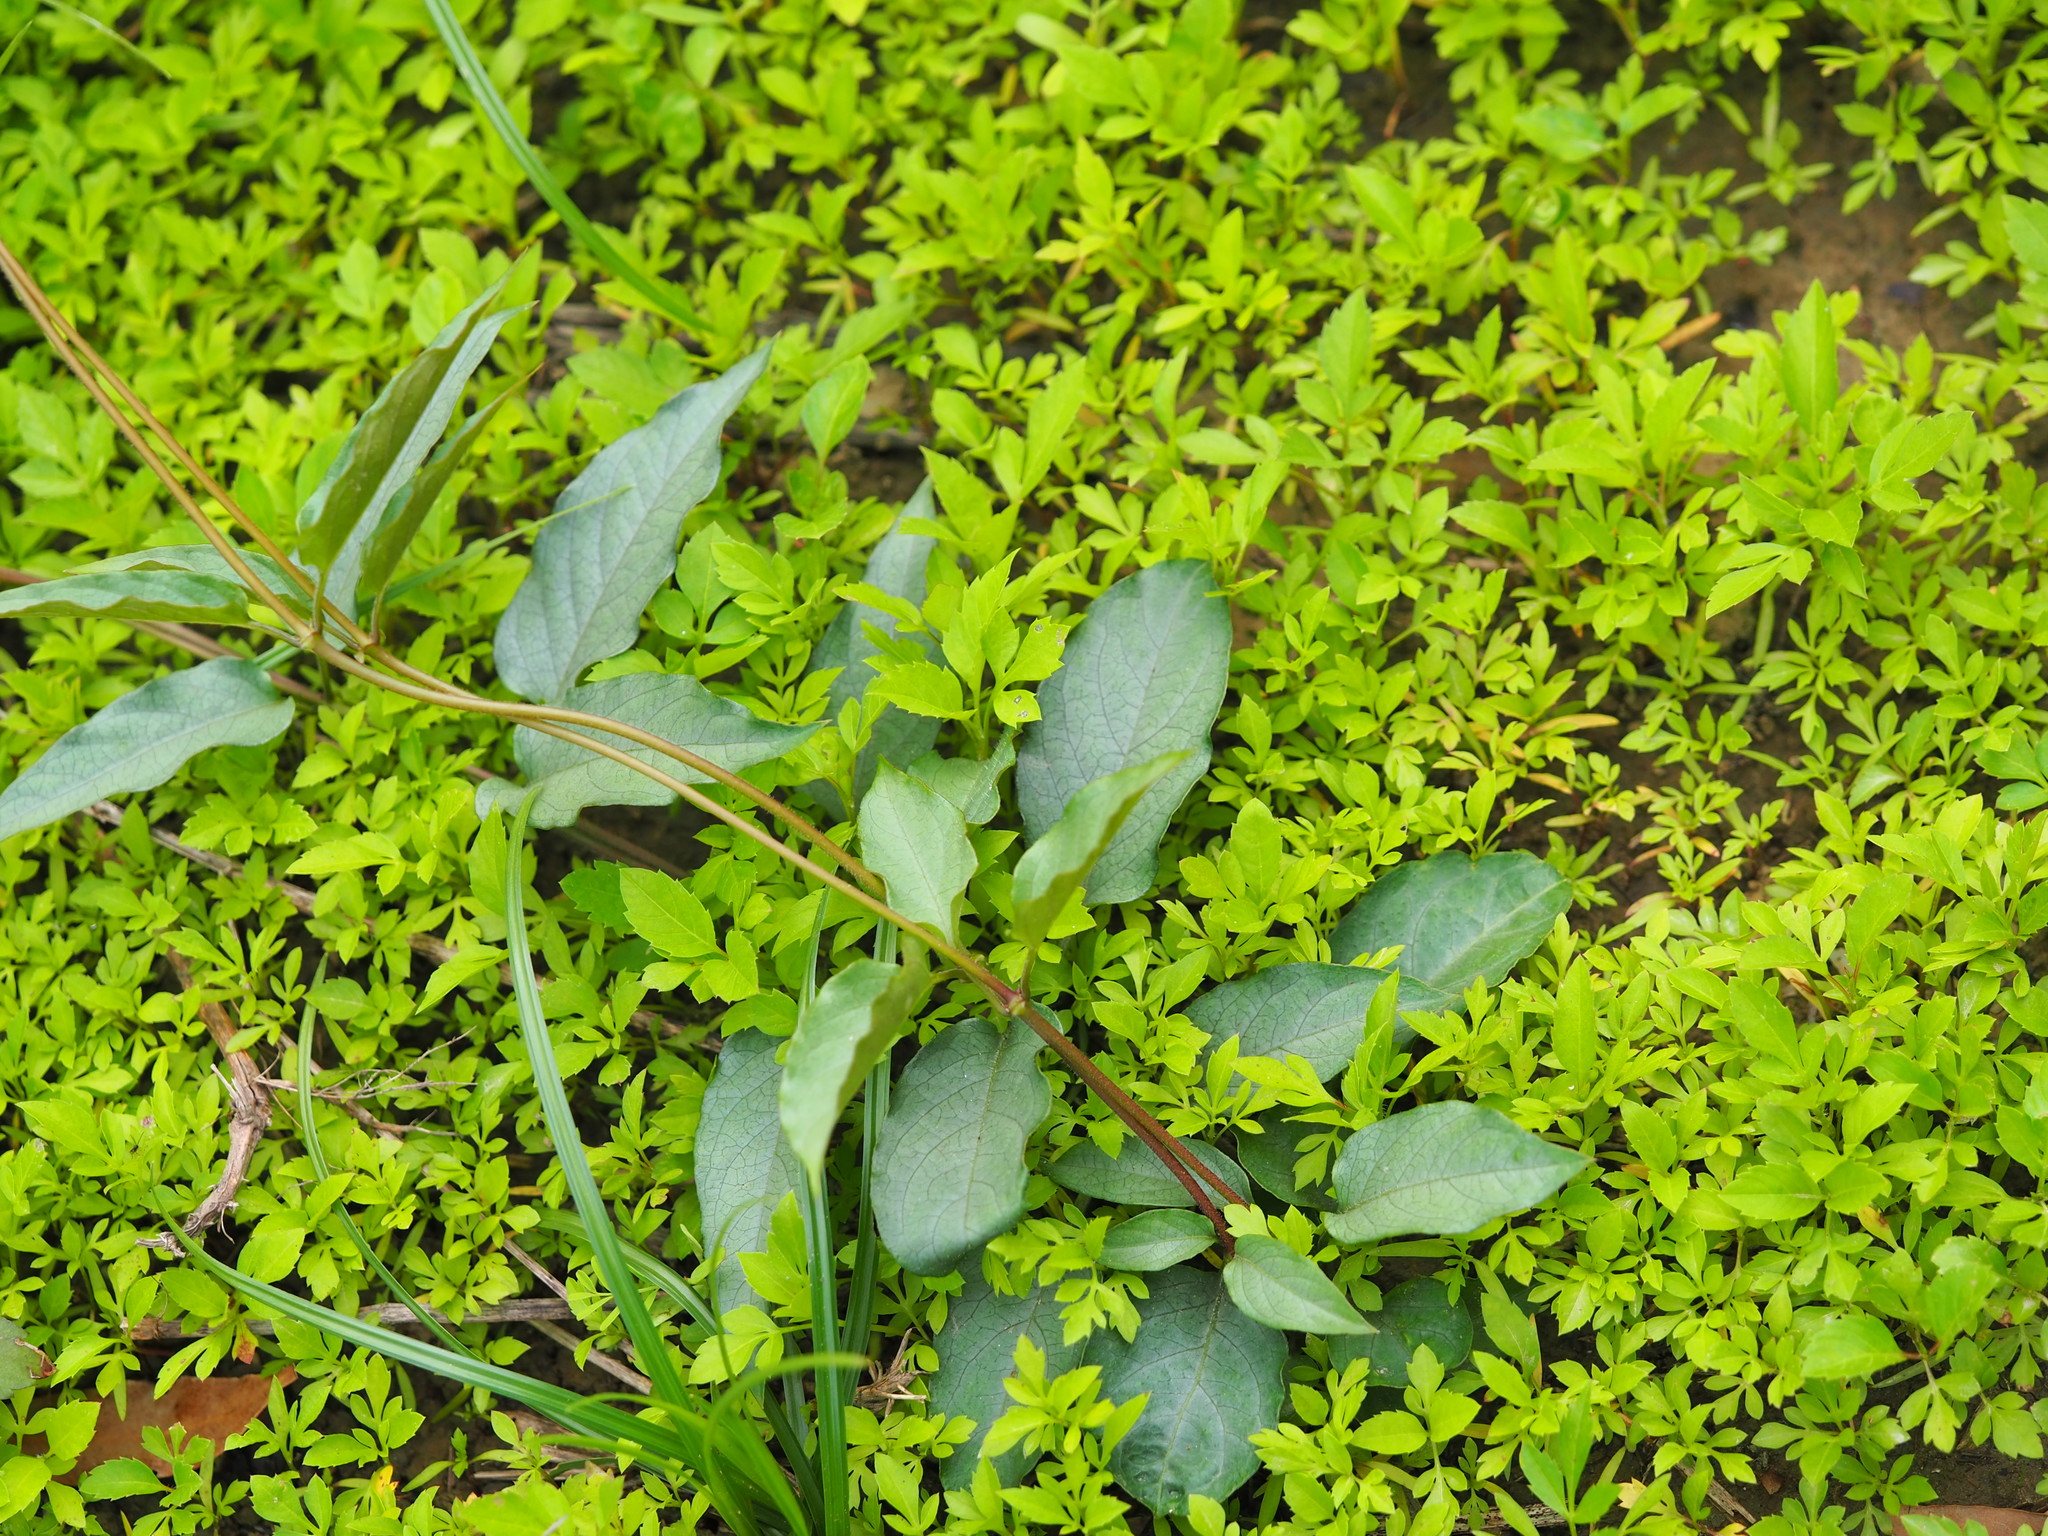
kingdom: Plantae
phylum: Tracheophyta
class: Magnoliopsida
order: Gentianales
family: Rubiaceae
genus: Paederia
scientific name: Paederia foetida
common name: Stinkvine
